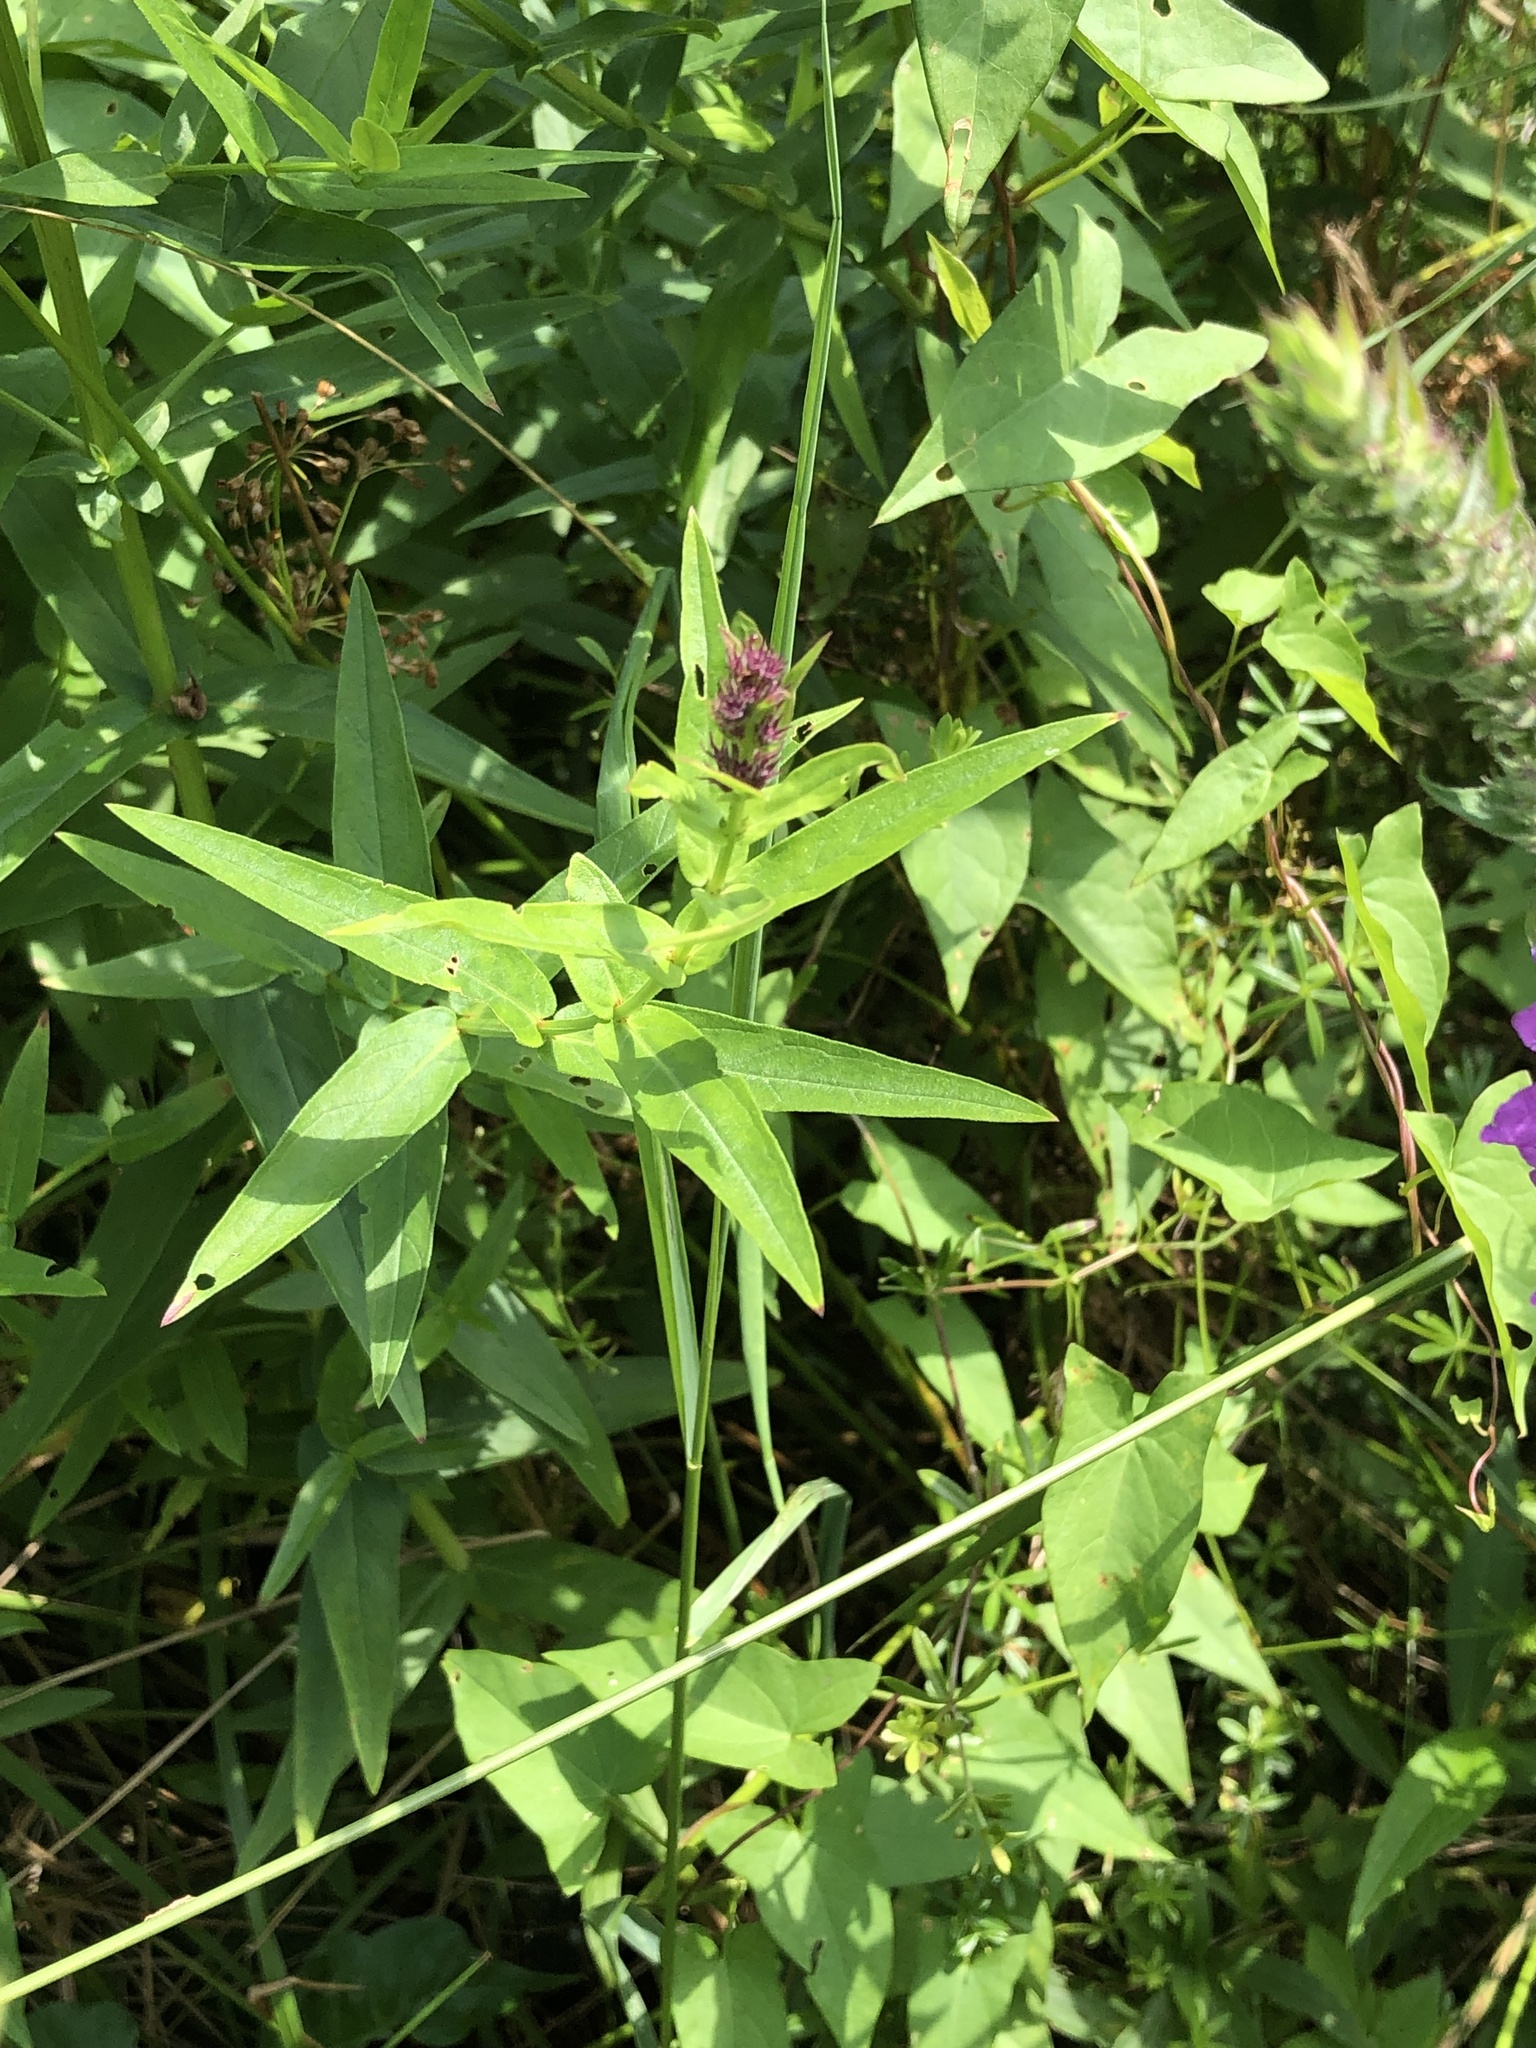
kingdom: Plantae
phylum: Tracheophyta
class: Magnoliopsida
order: Myrtales
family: Lythraceae
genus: Lythrum
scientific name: Lythrum salicaria
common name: Purple loosestrife
